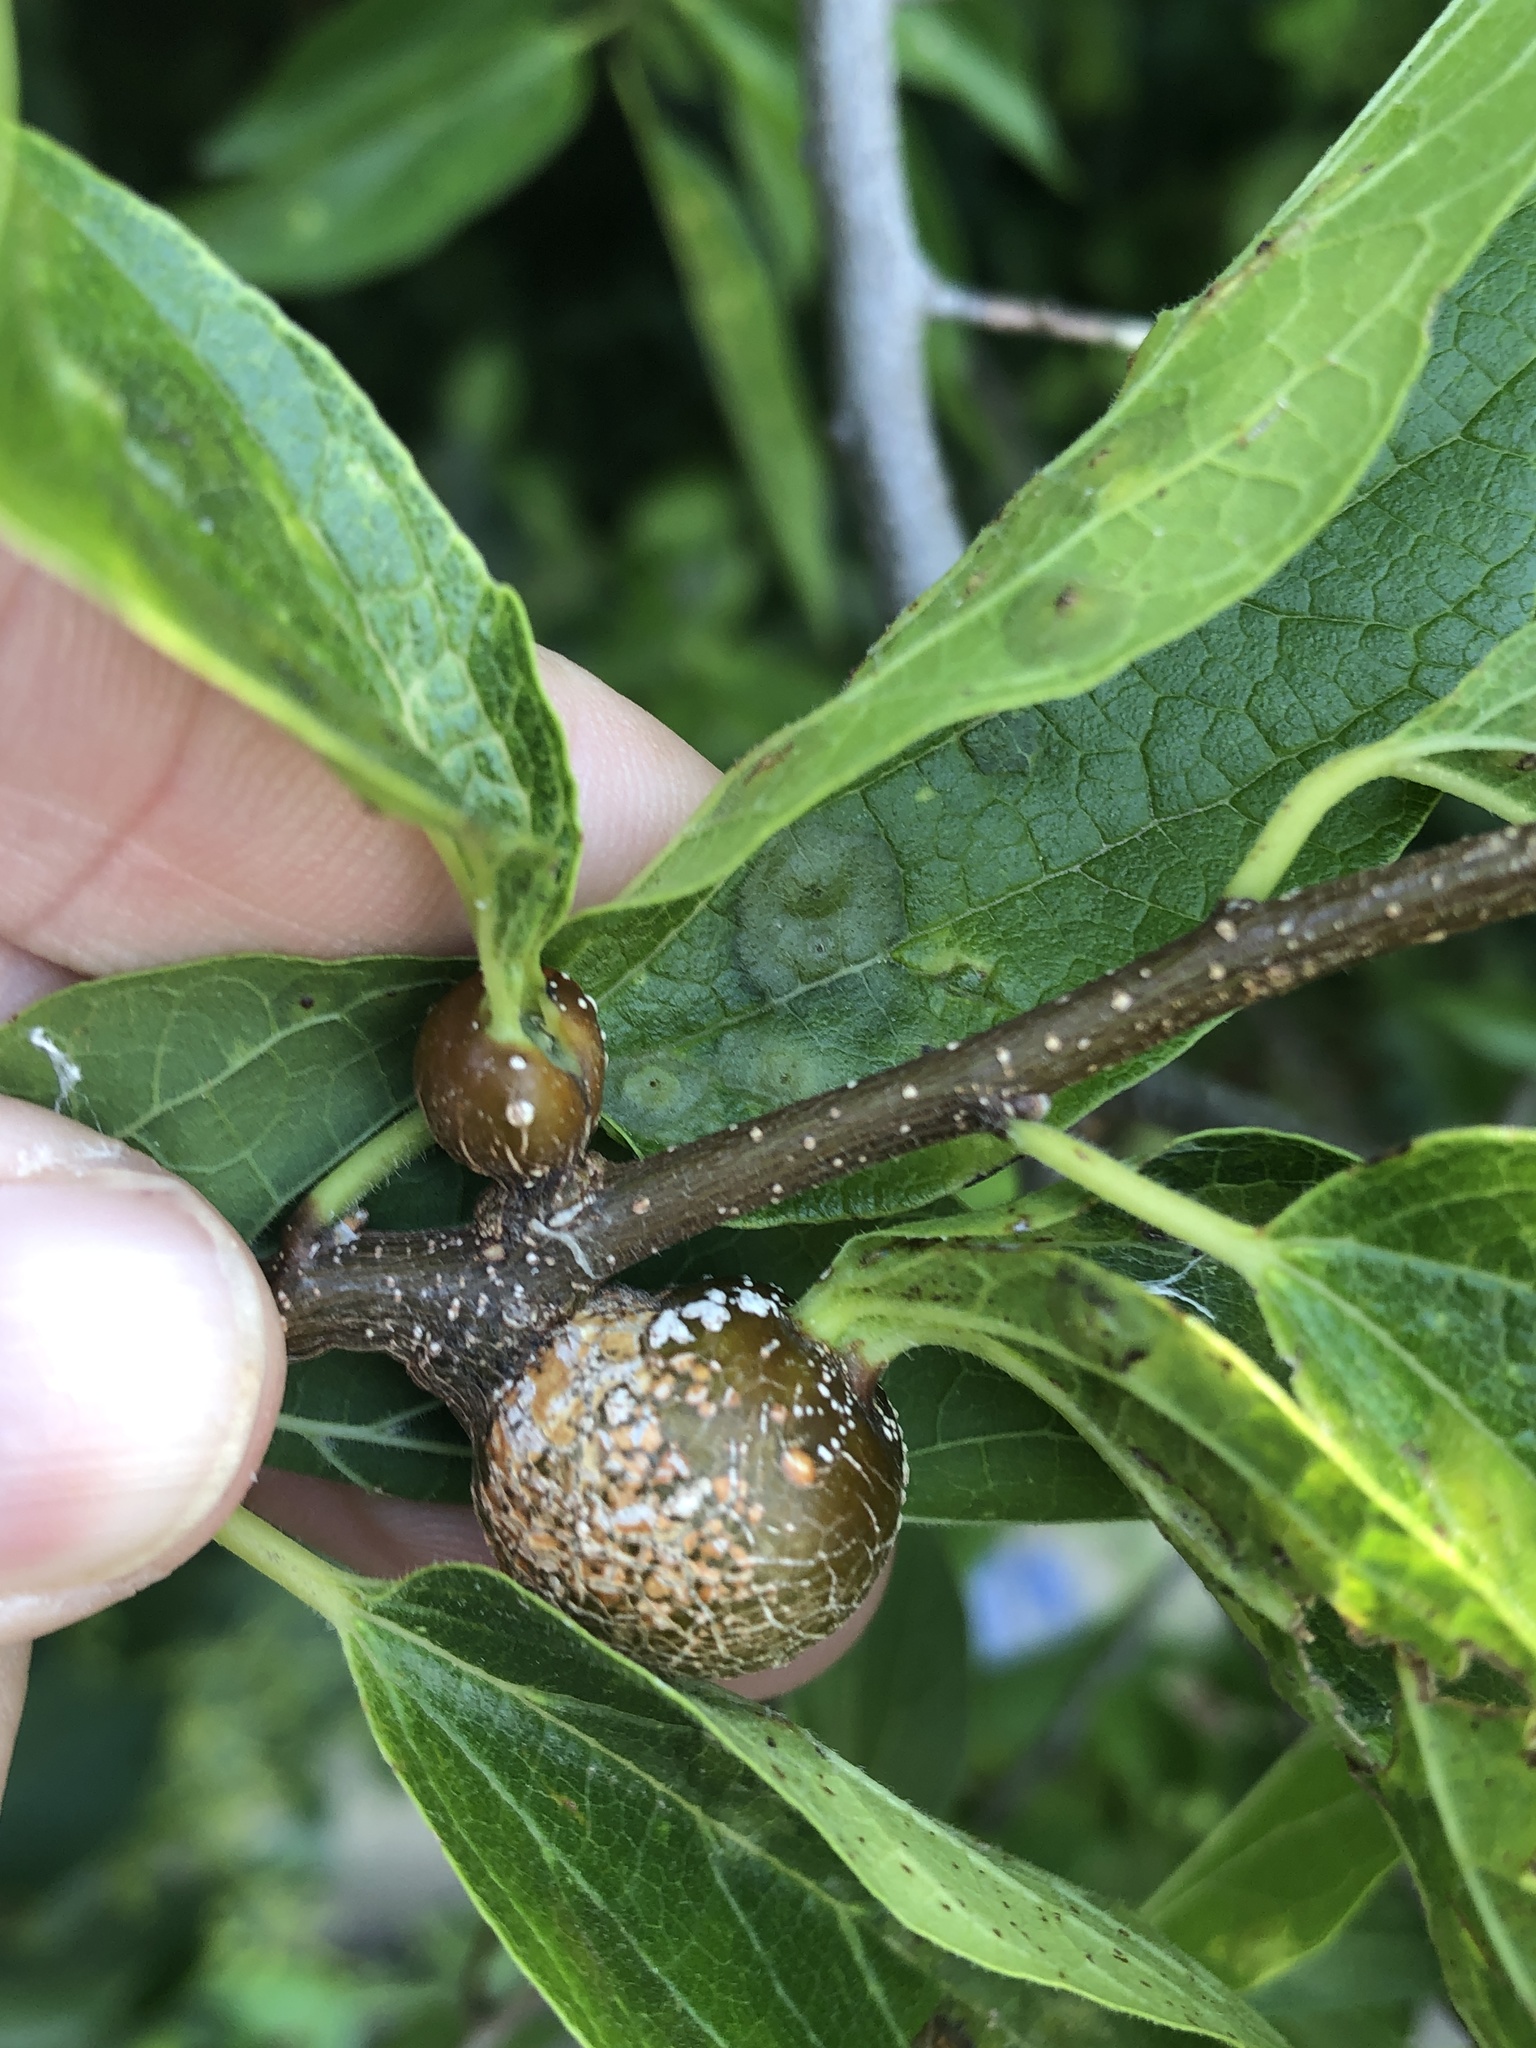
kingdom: Animalia
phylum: Arthropoda
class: Insecta
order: Hemiptera
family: Aphalaridae
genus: Pachypsylla
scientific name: Pachypsylla venusta
